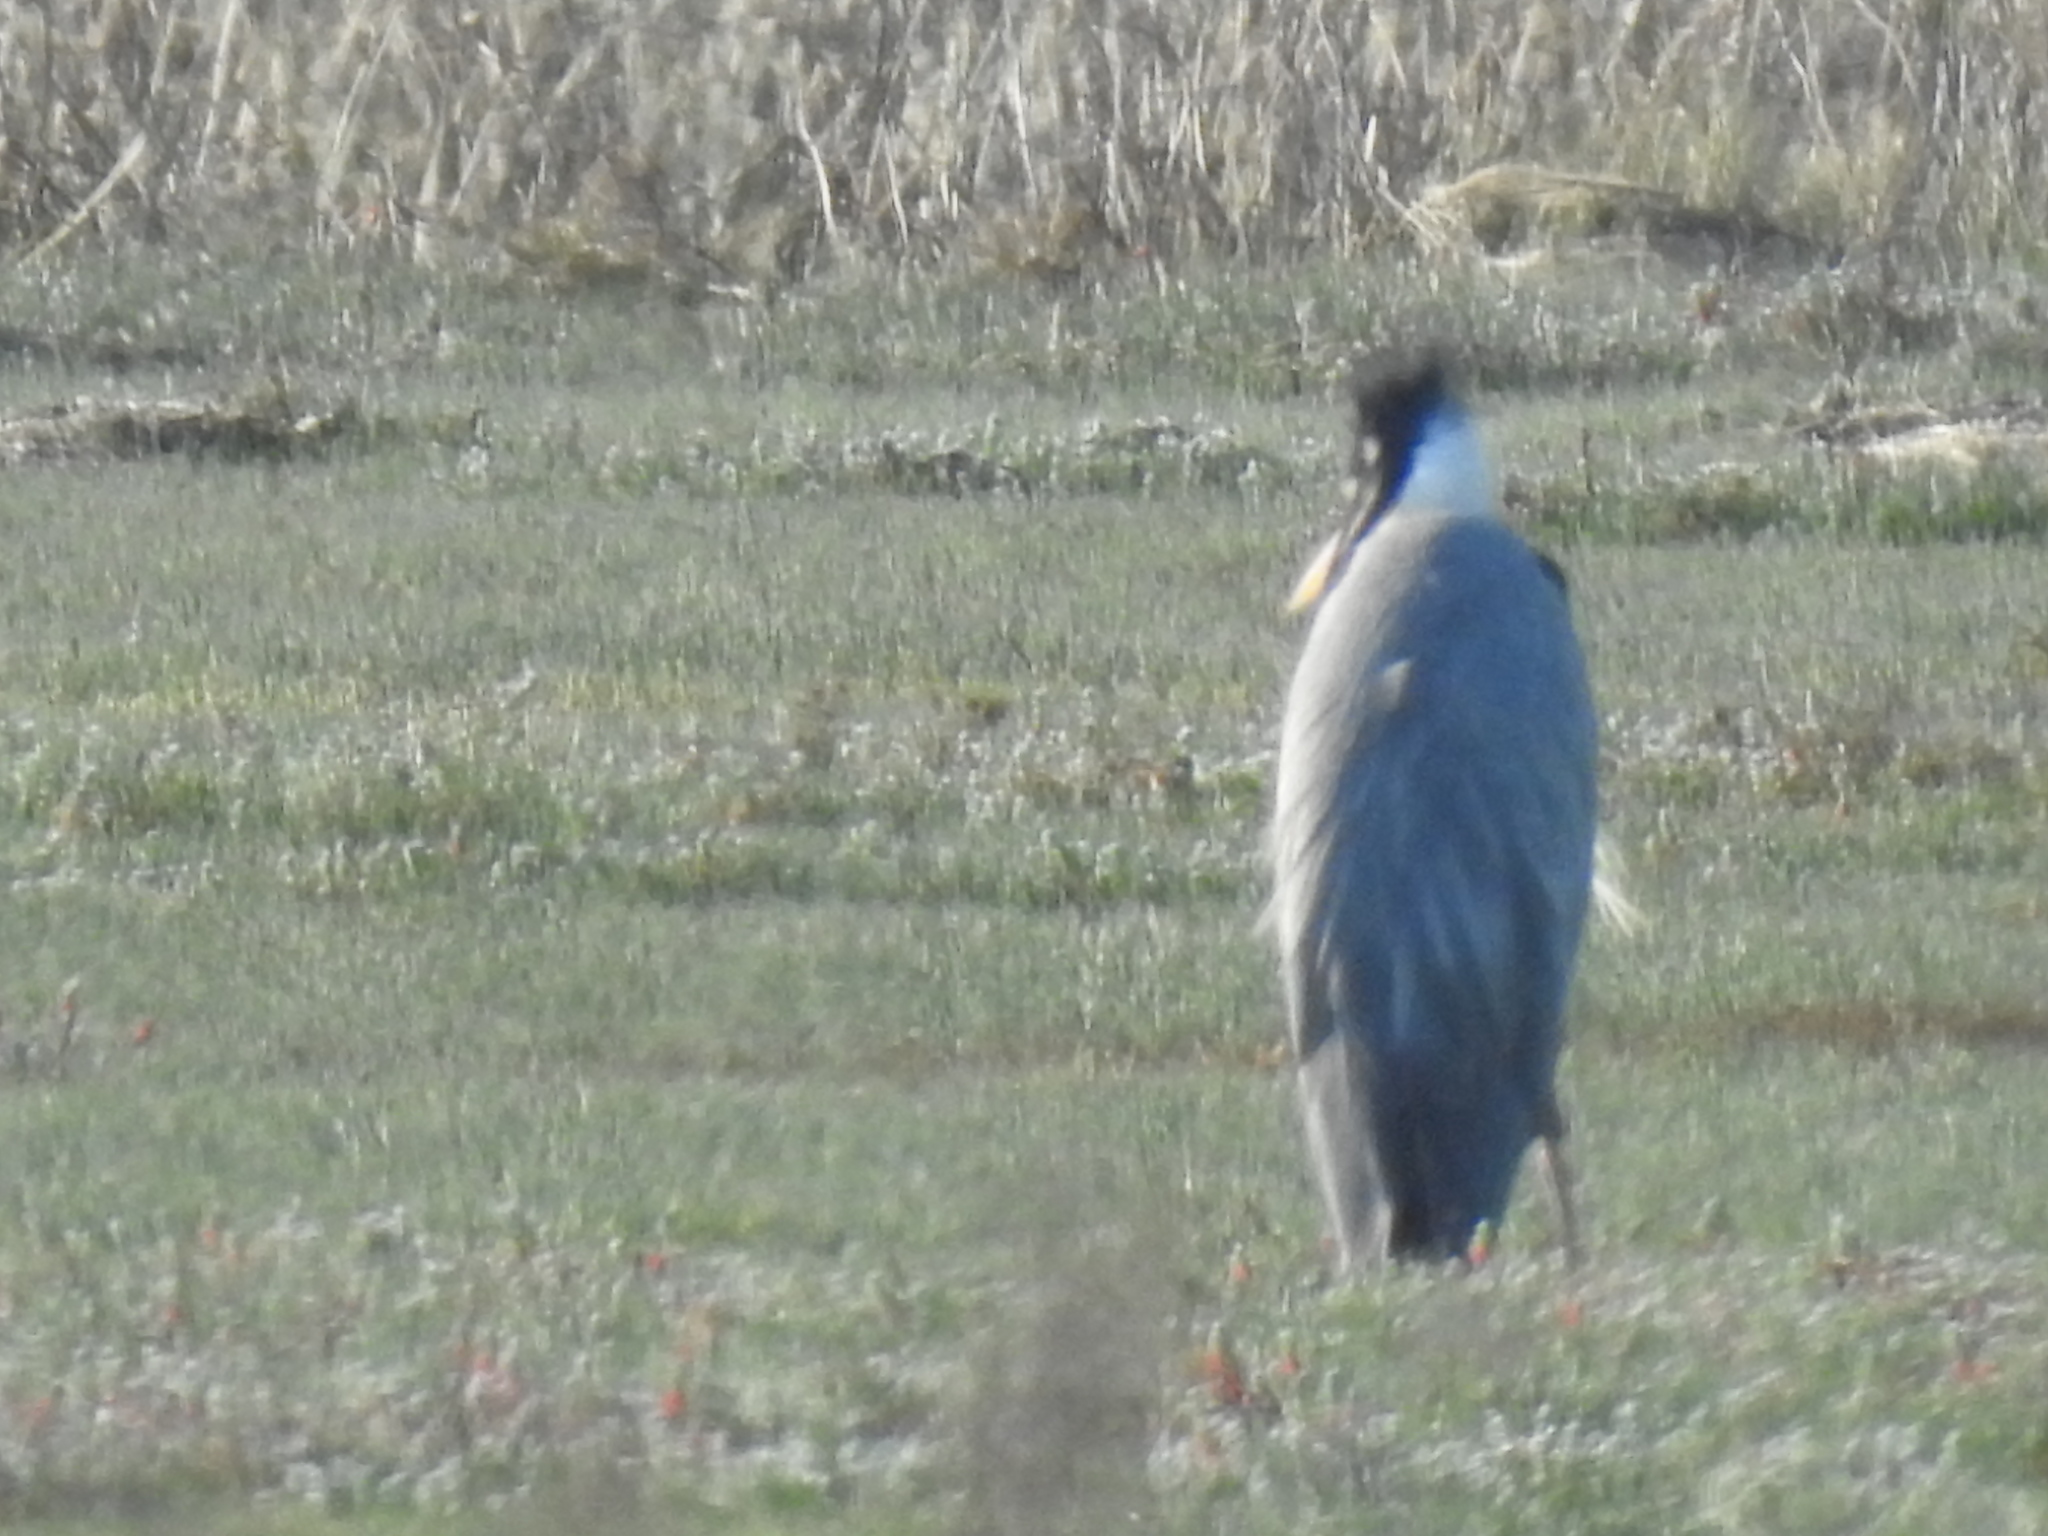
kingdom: Animalia
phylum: Chordata
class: Aves
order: Pelecaniformes
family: Ardeidae
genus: Ardea
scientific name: Ardea cinerea
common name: Grey heron
